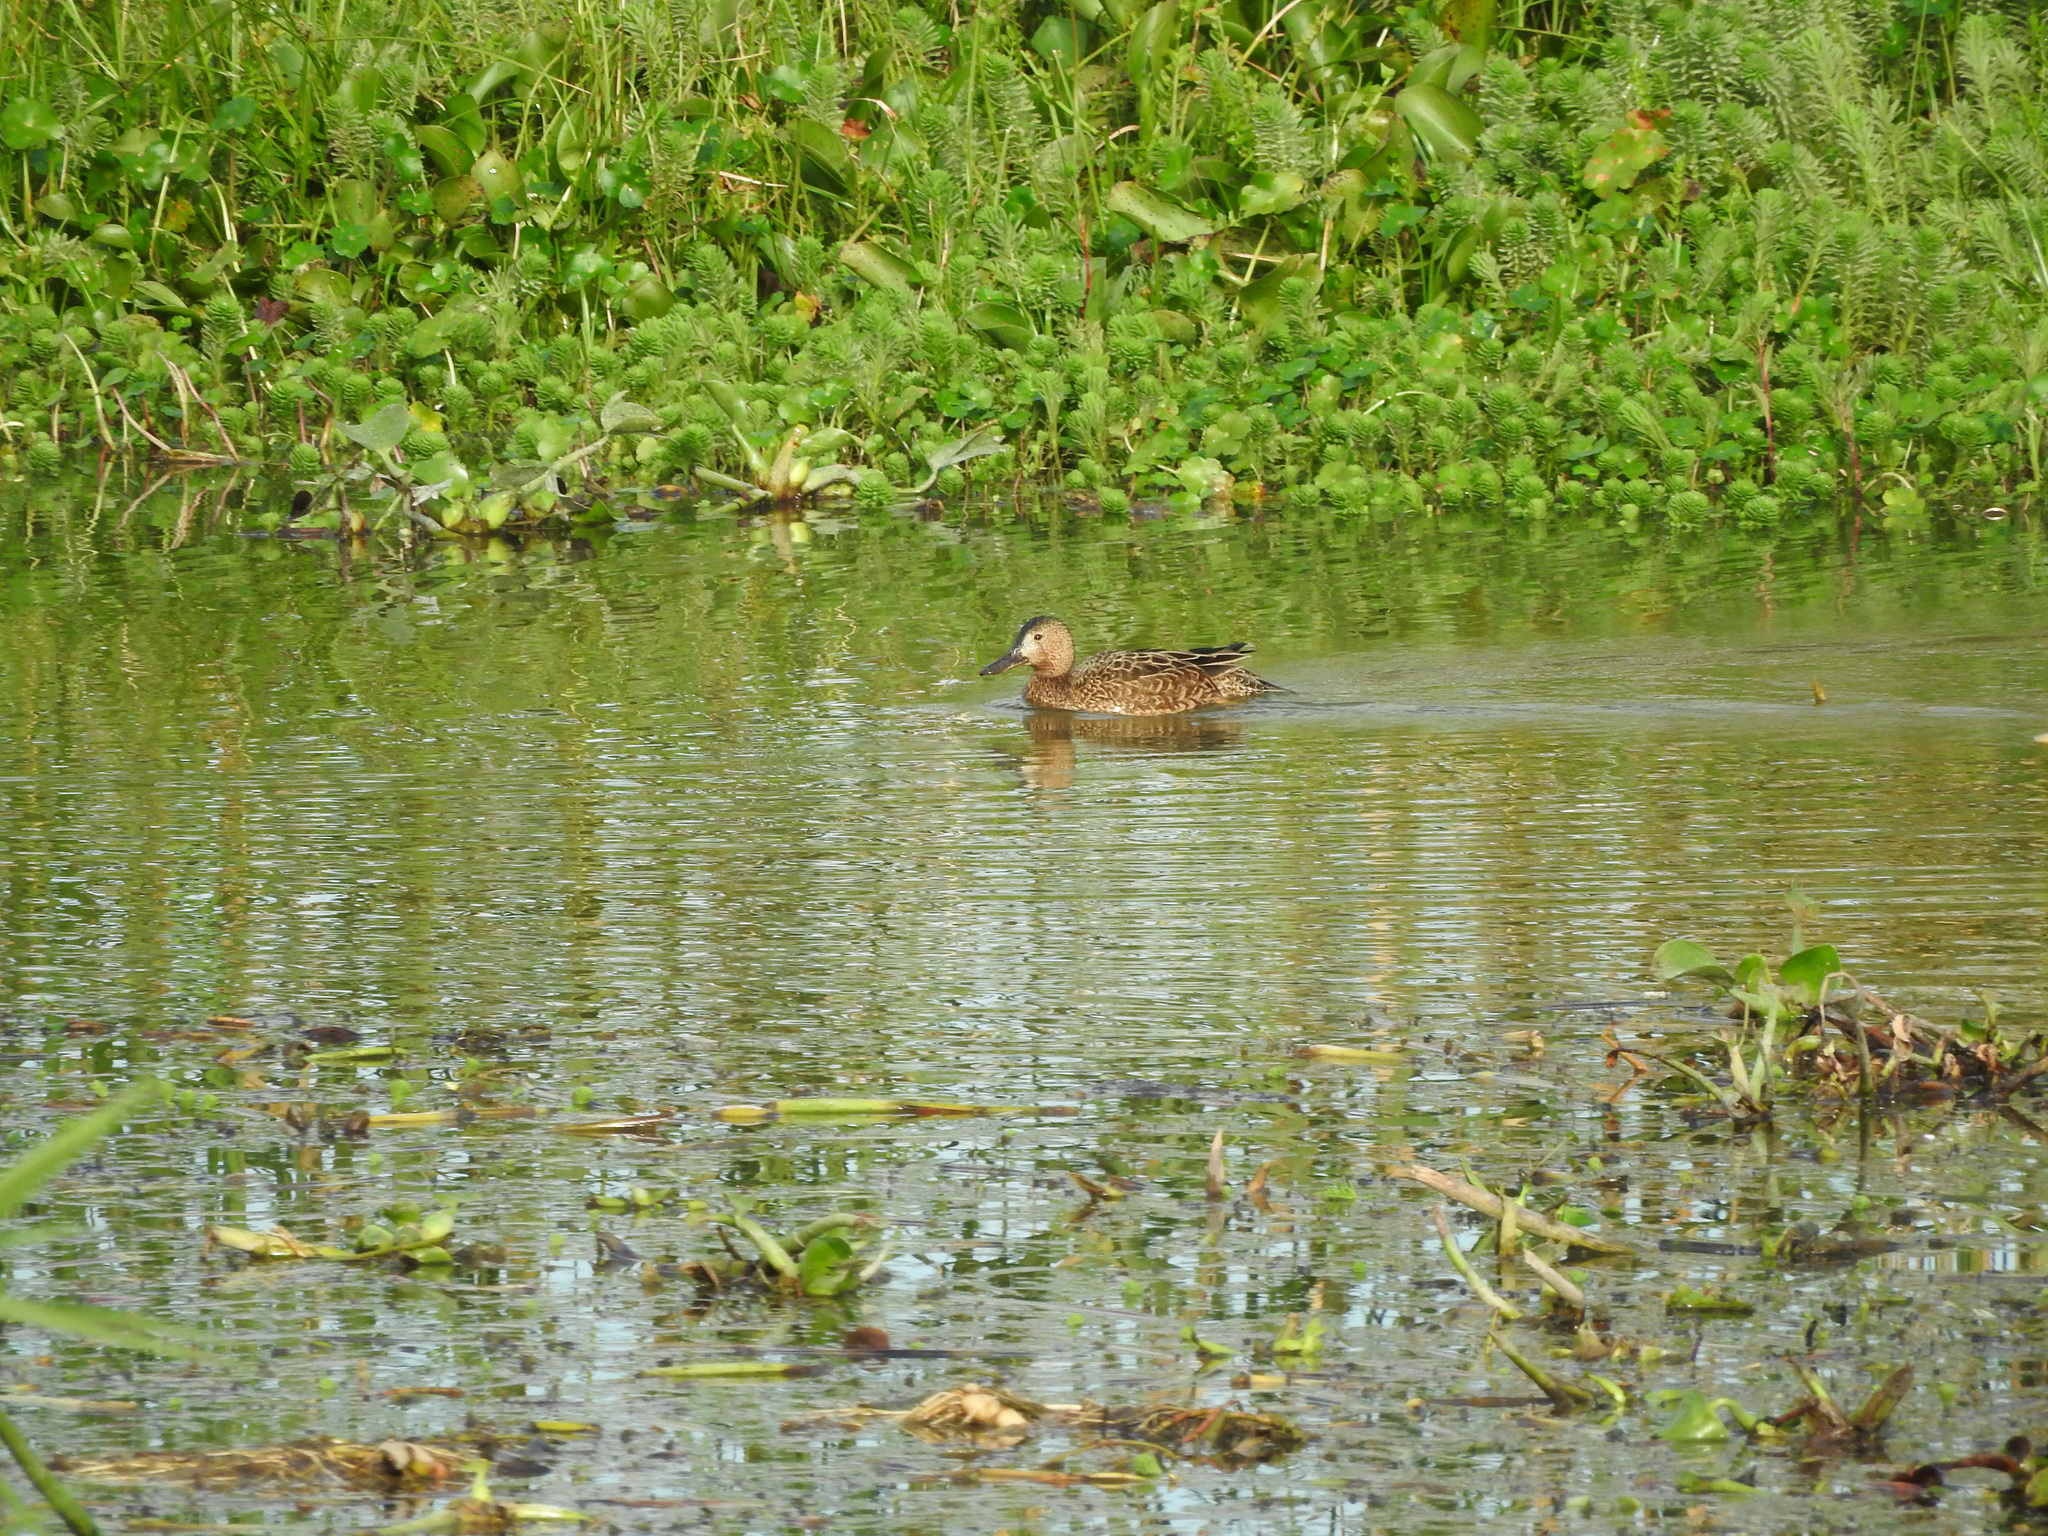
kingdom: Animalia
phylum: Chordata
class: Aves
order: Anseriformes
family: Anatidae
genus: Spatula
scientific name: Spatula cyanoptera
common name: Cinnamon teal
